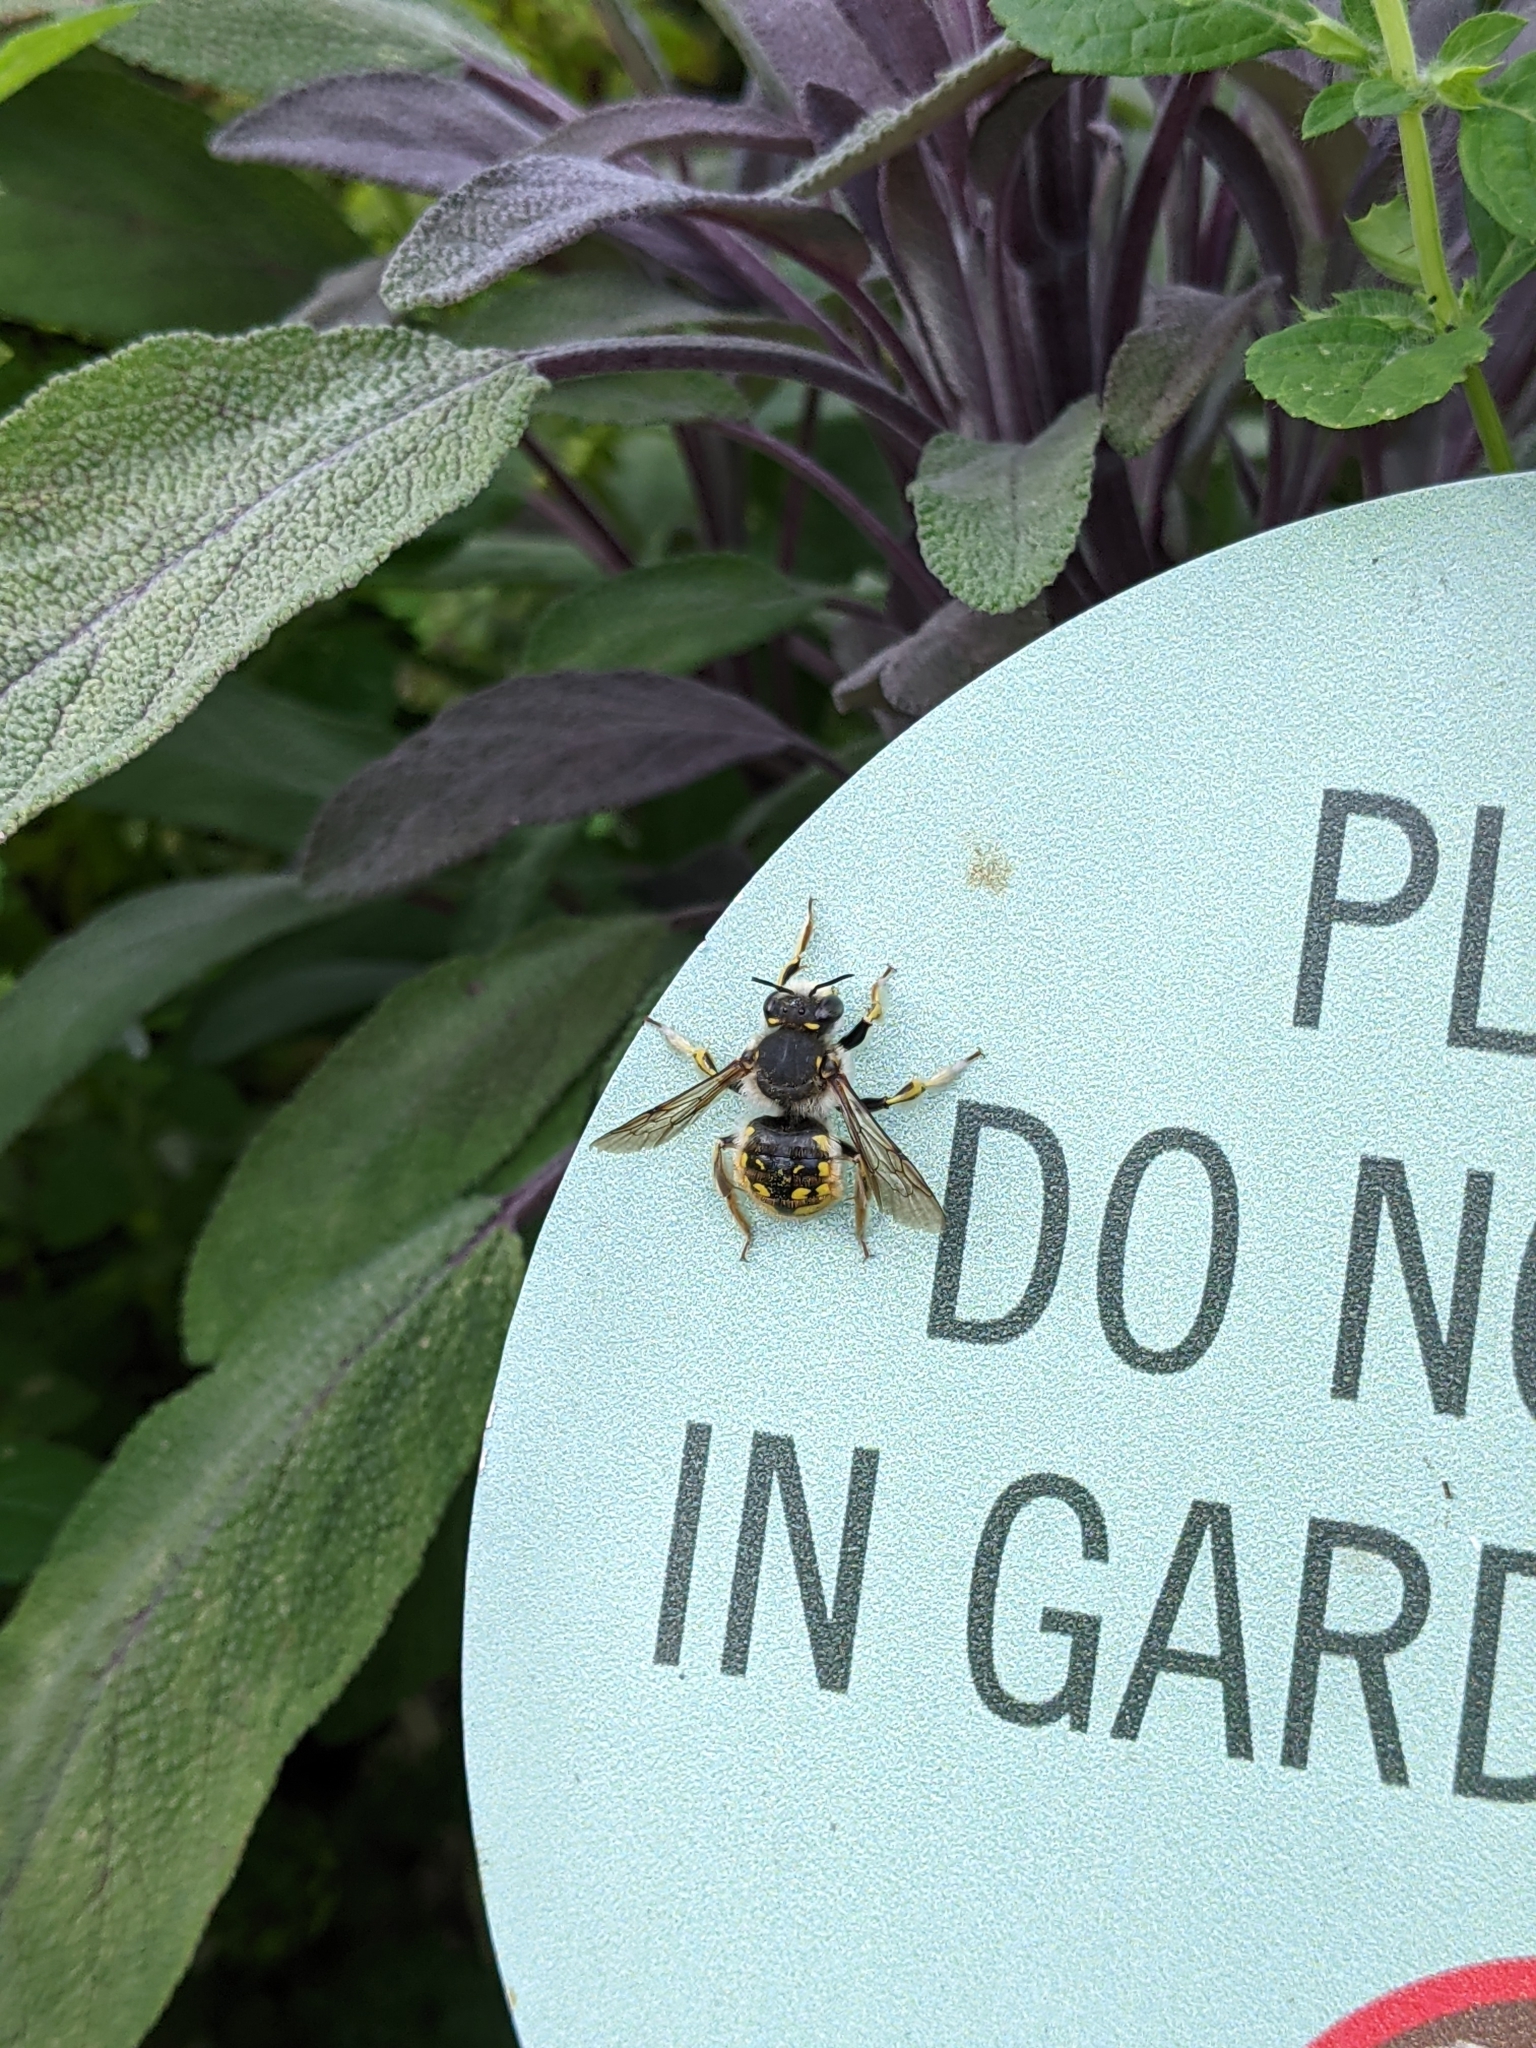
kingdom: Animalia
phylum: Arthropoda
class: Insecta
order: Hymenoptera
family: Megachilidae
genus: Anthidium
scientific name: Anthidium manicatum
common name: Wool carder bee
